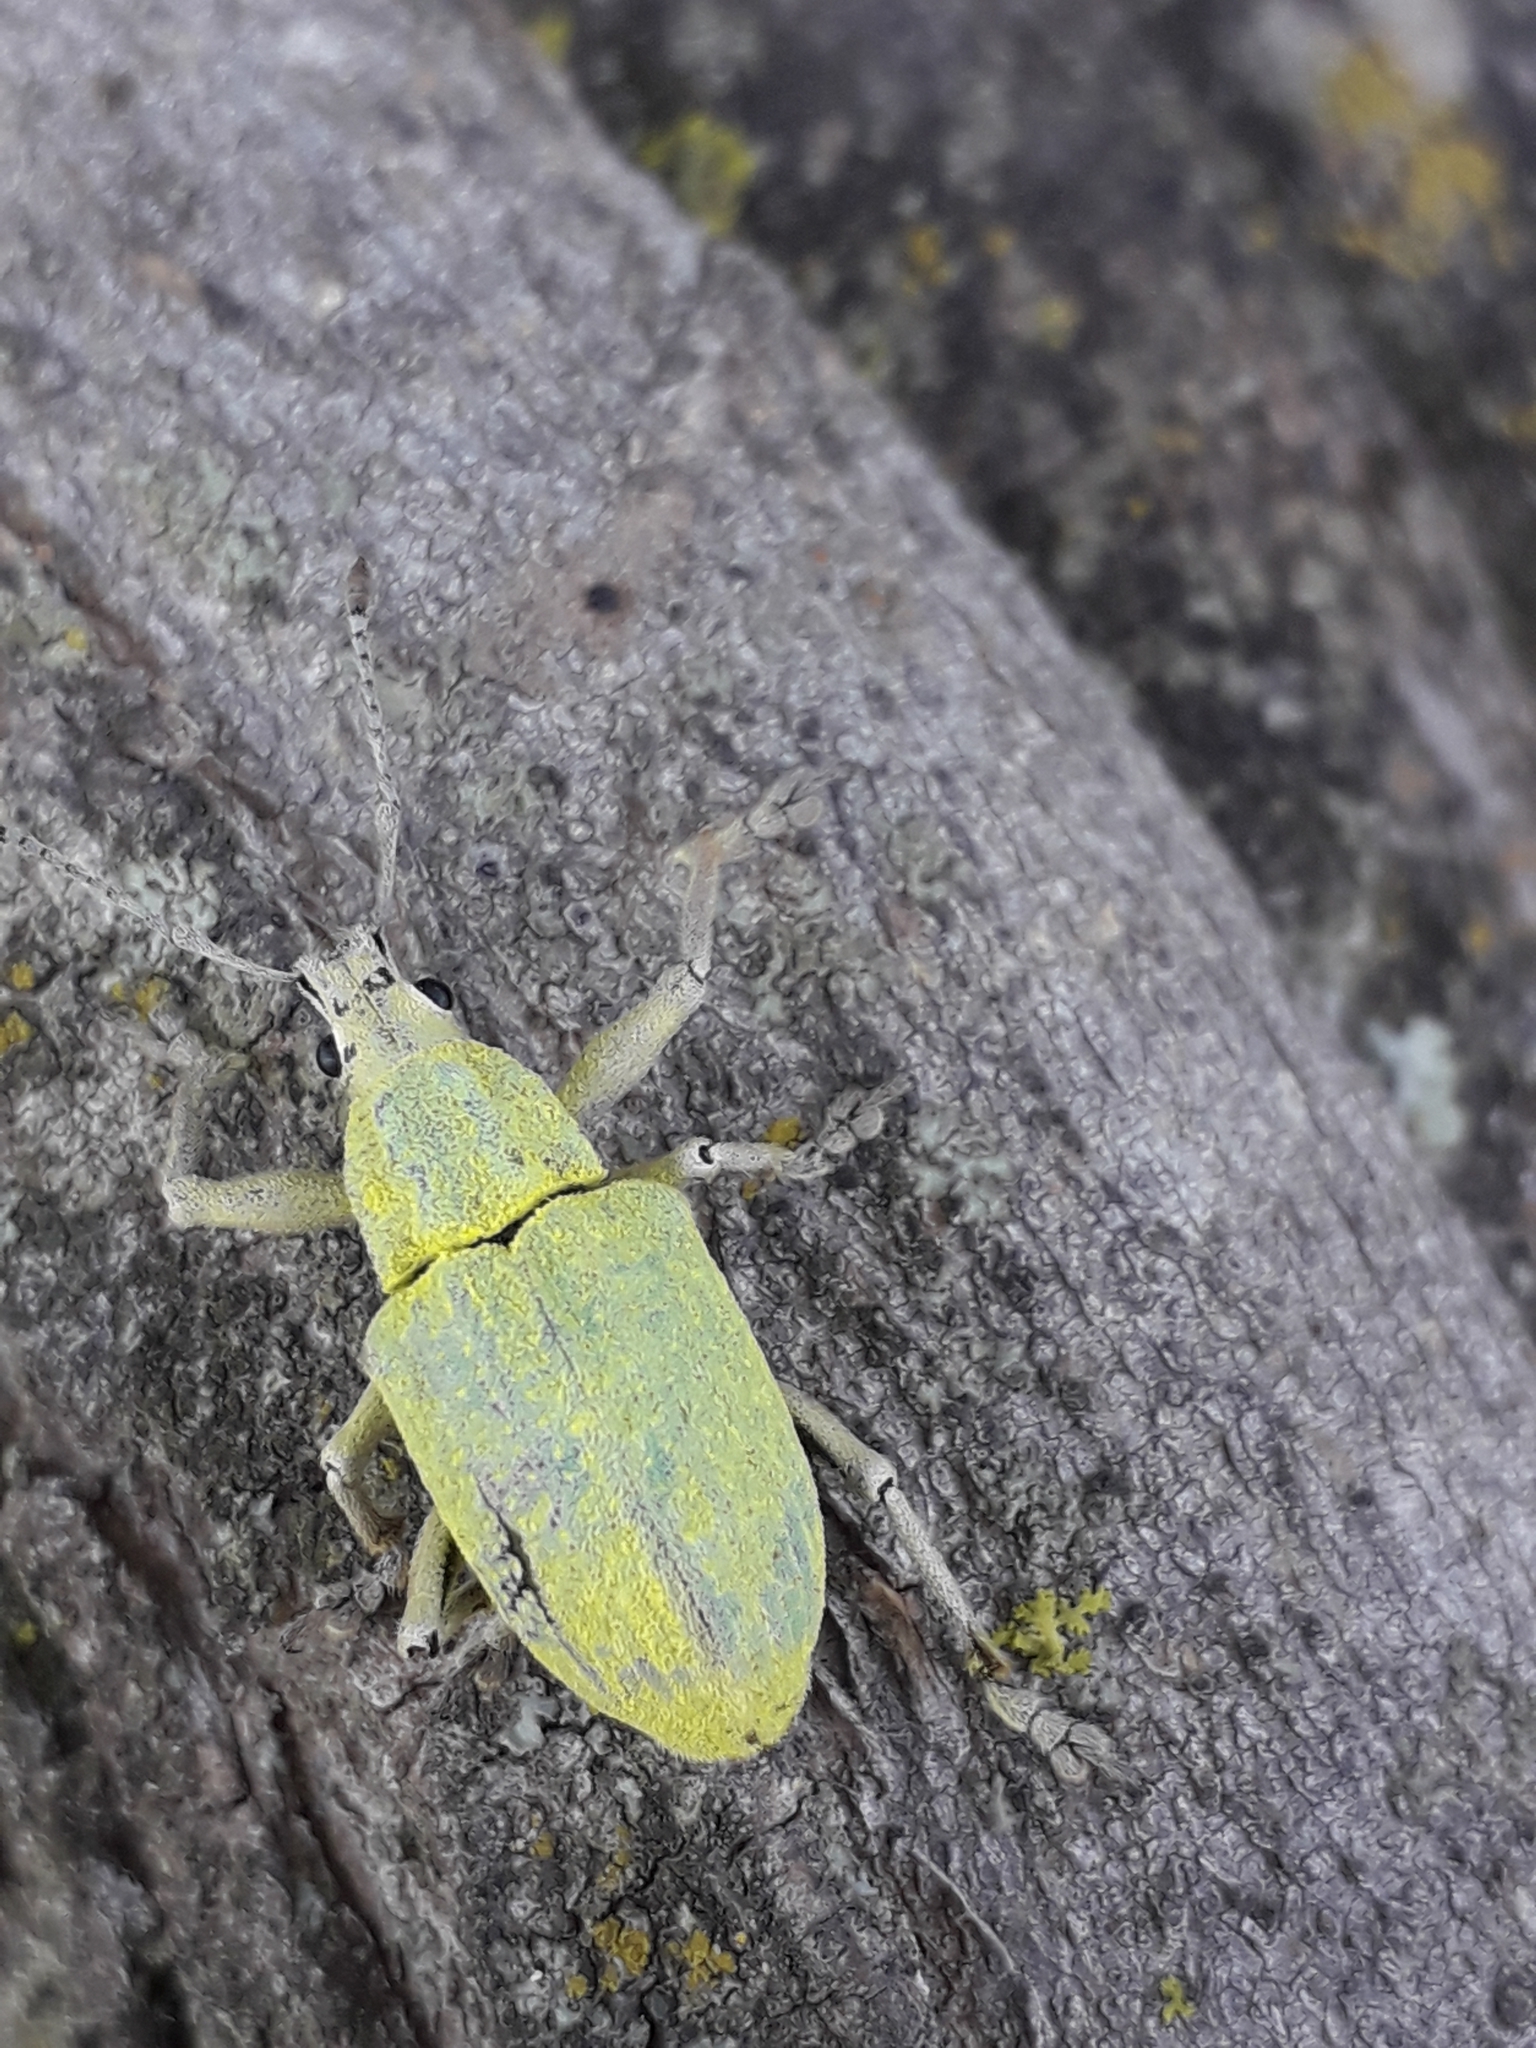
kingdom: Animalia
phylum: Arthropoda
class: Insecta
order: Coleoptera
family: Curculionidae
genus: Cyrtomon
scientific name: Cyrtomon inhalatus
